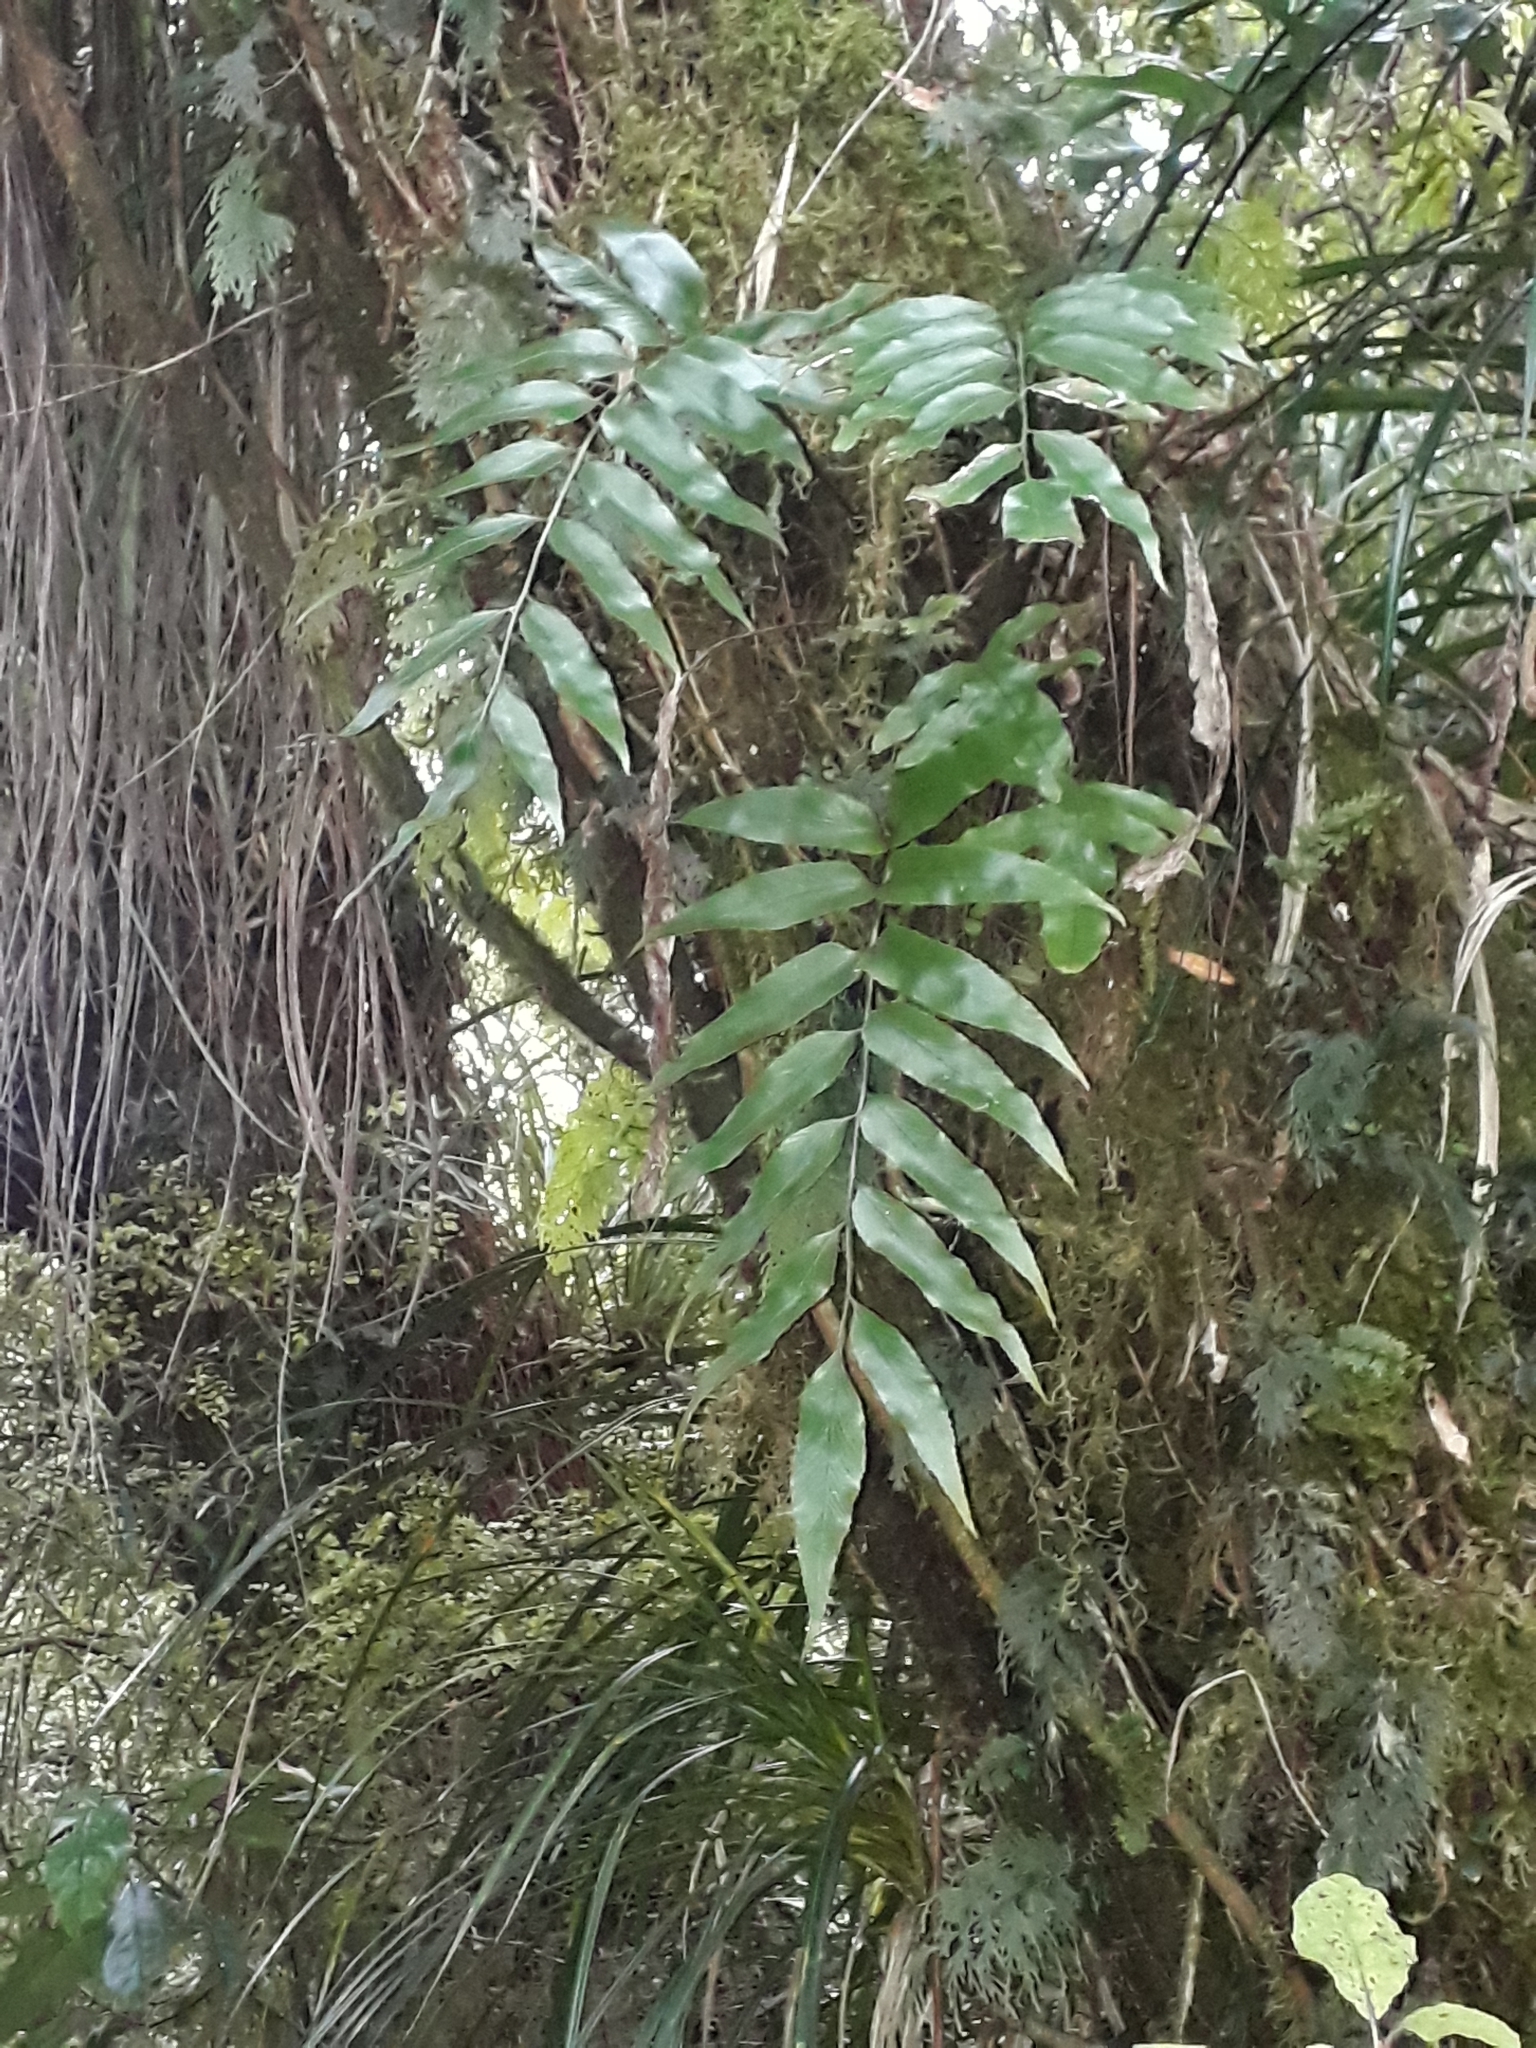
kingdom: Plantae
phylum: Tracheophyta
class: Polypodiopsida
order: Polypodiales
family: Aspleniaceae
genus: Asplenium
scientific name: Asplenium oblongifolium
